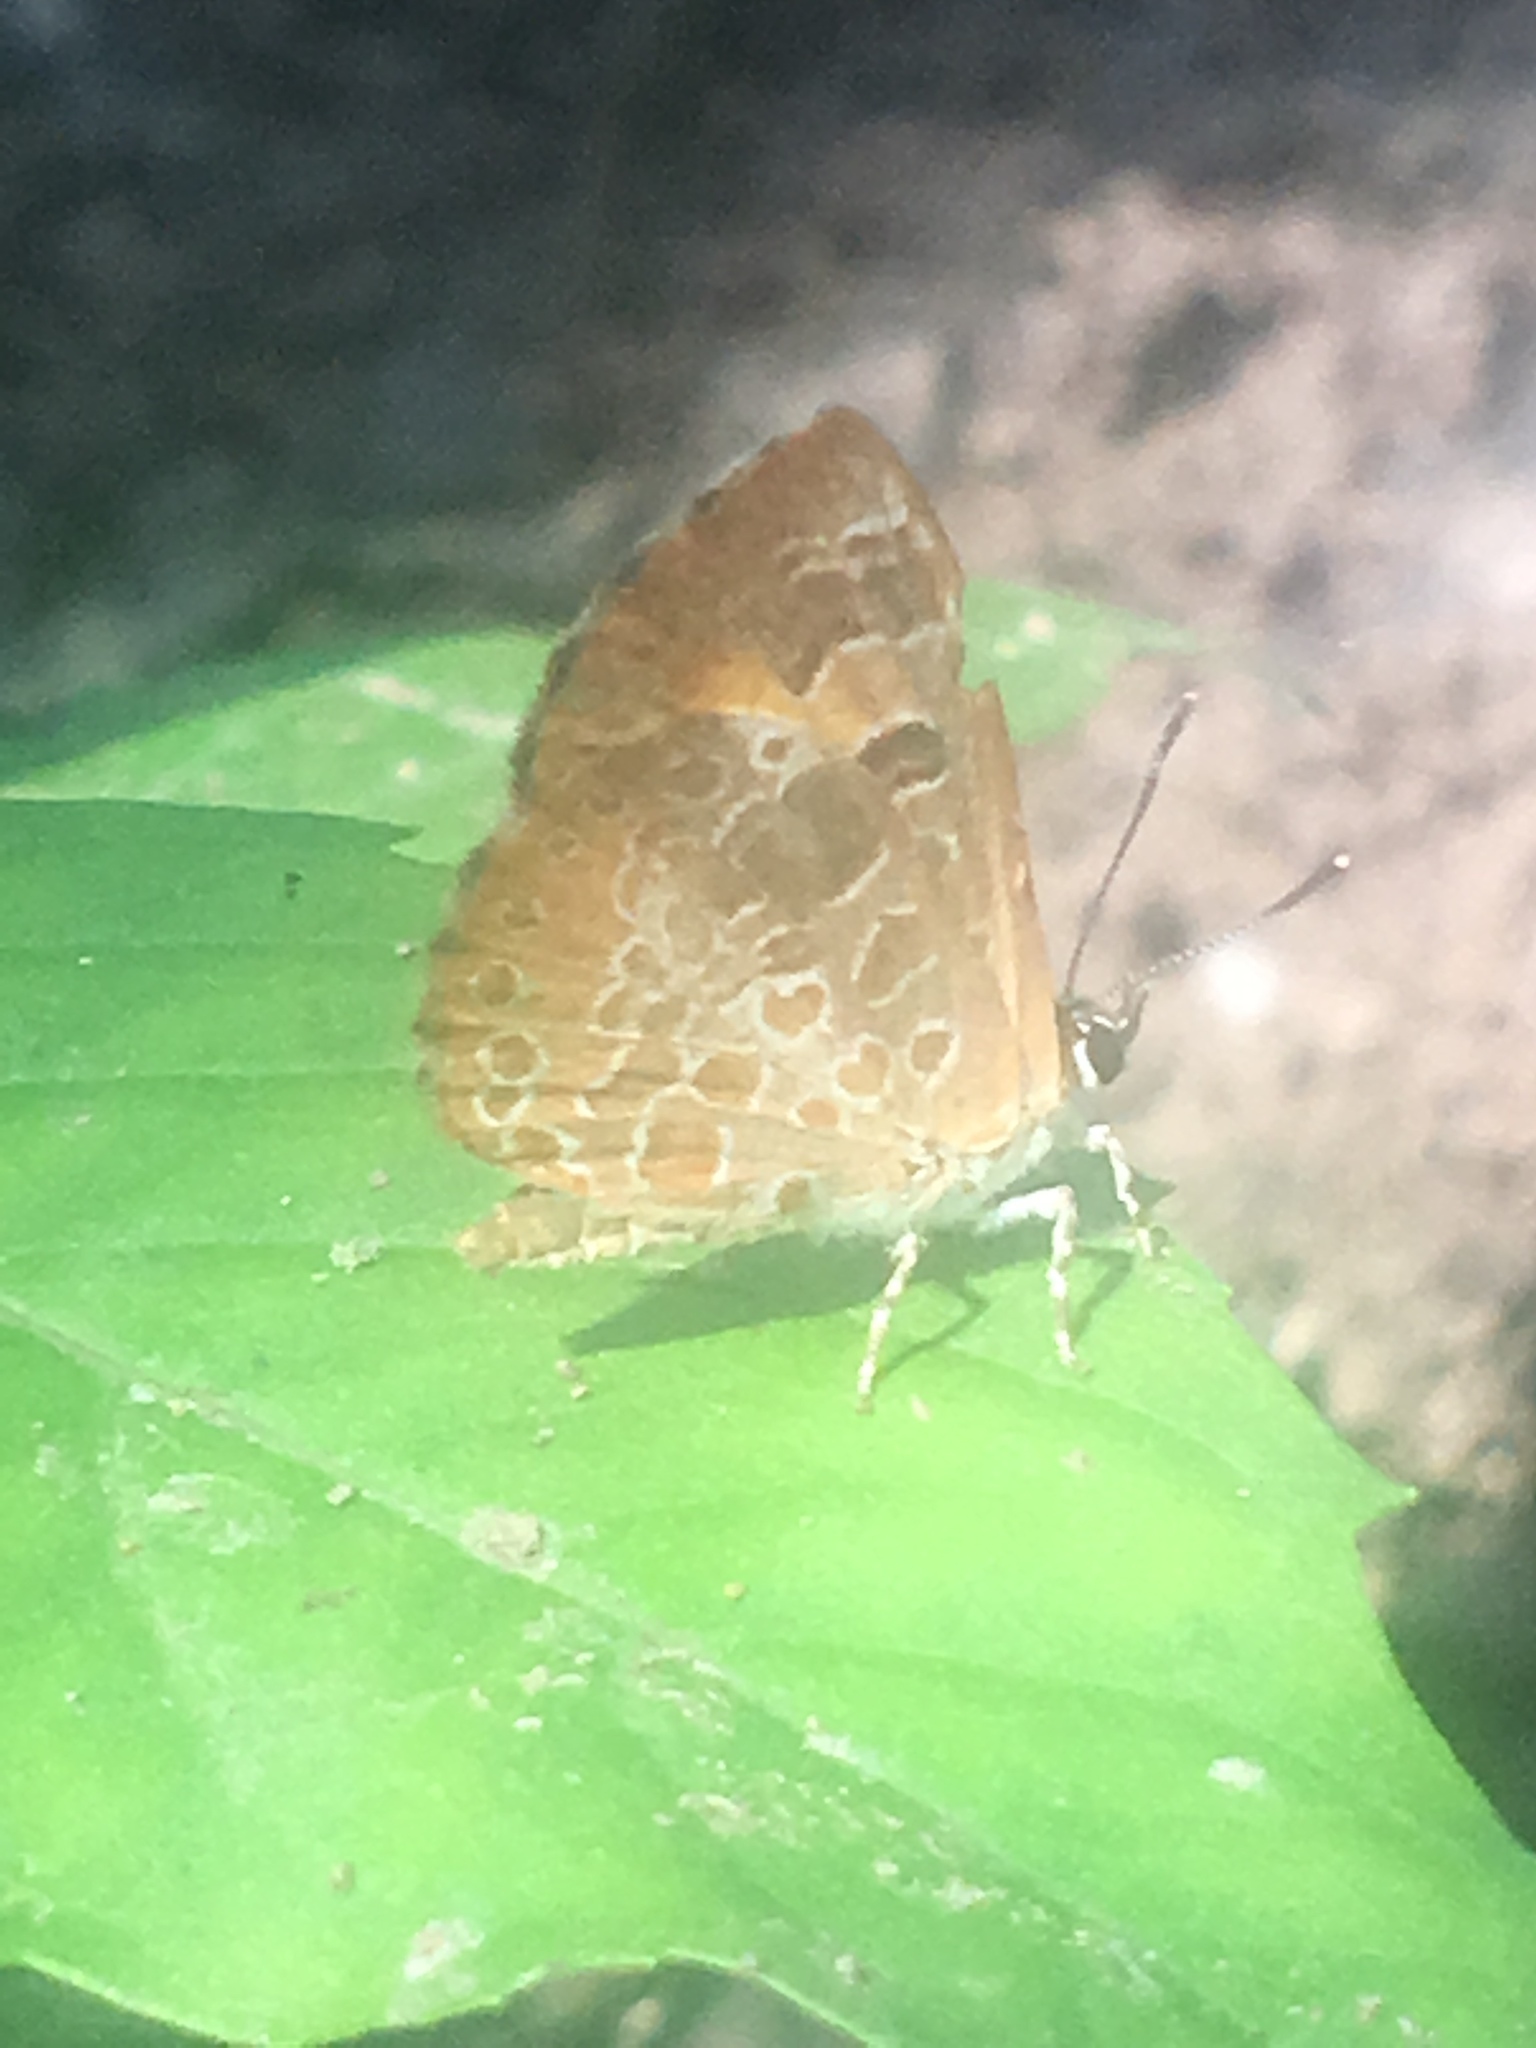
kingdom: Animalia
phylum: Arthropoda
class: Insecta
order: Lepidoptera
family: Lycaenidae
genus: Feniseca
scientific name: Feniseca tarquinius
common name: Harvester
